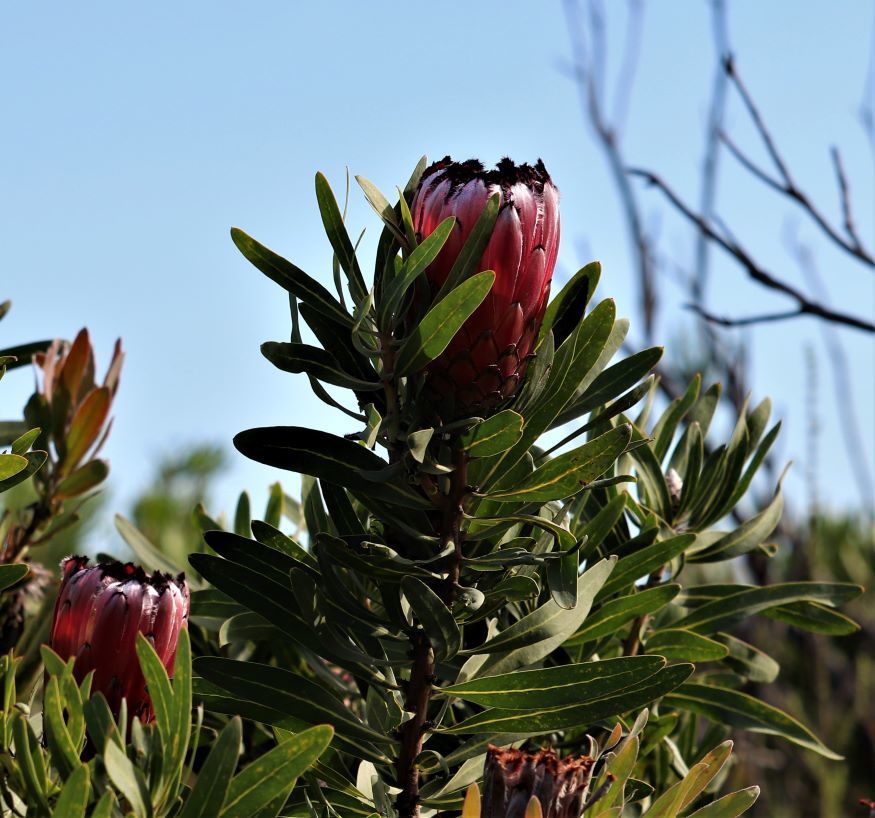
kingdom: Plantae
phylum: Tracheophyta
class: Magnoliopsida
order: Proteales
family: Proteaceae
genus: Protea
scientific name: Protea neriifolia
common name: Blue sugarbush
